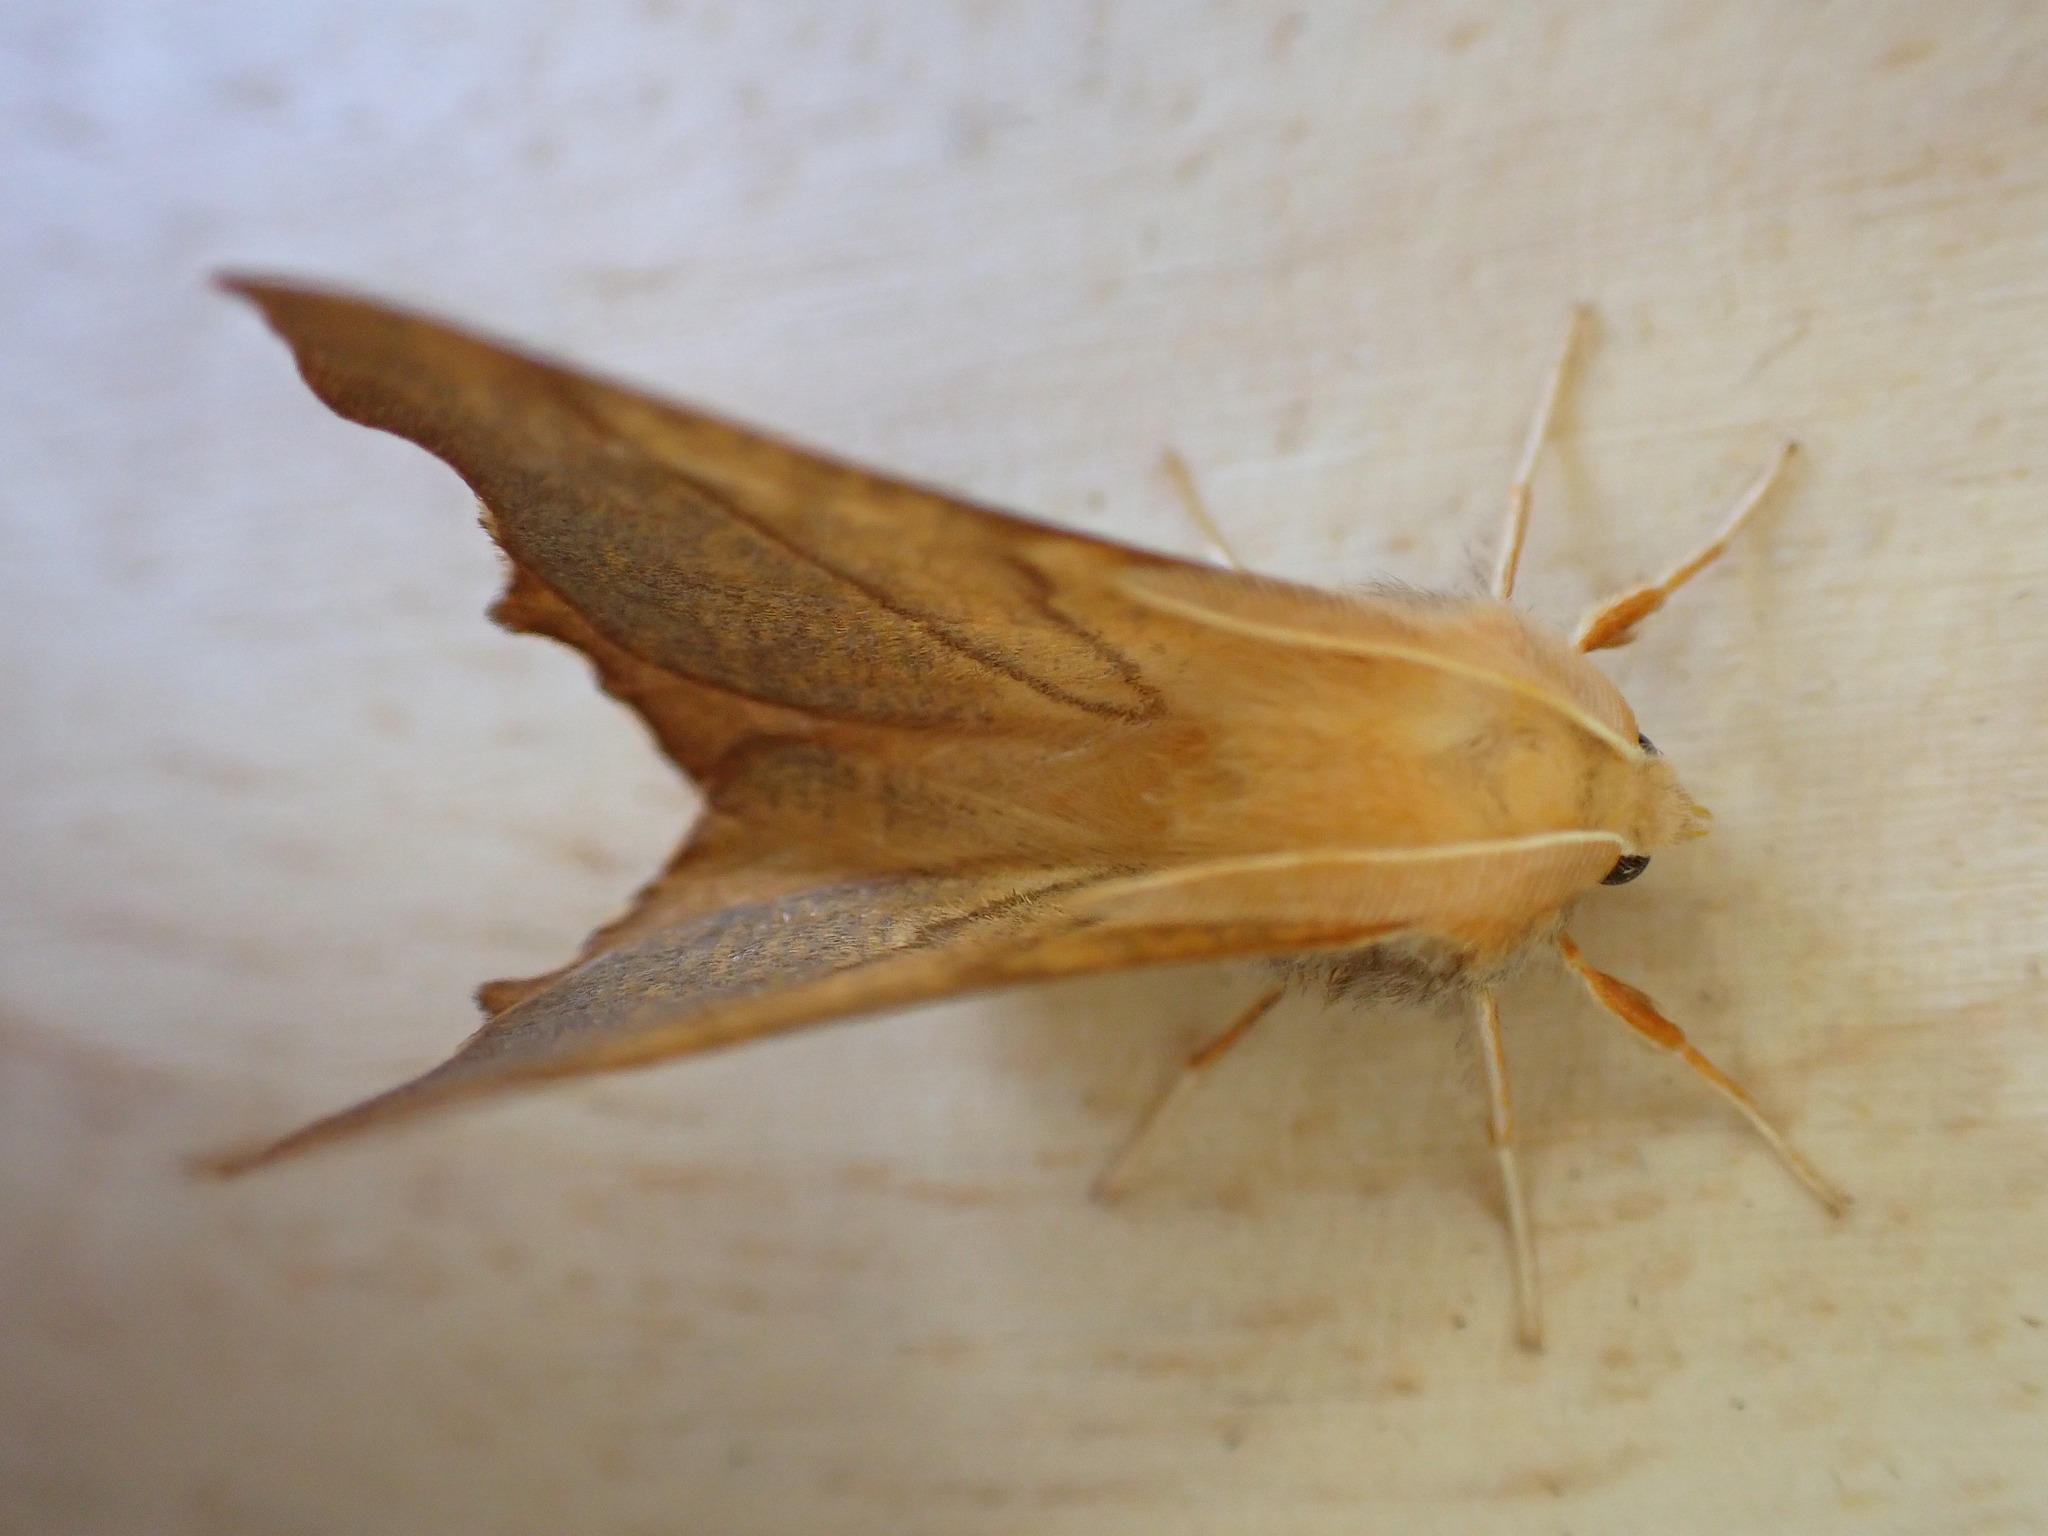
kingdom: Animalia
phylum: Arthropoda
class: Insecta
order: Lepidoptera
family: Geometridae
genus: Ennomos
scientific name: Ennomos fuscantaria
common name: Dusky thorn
